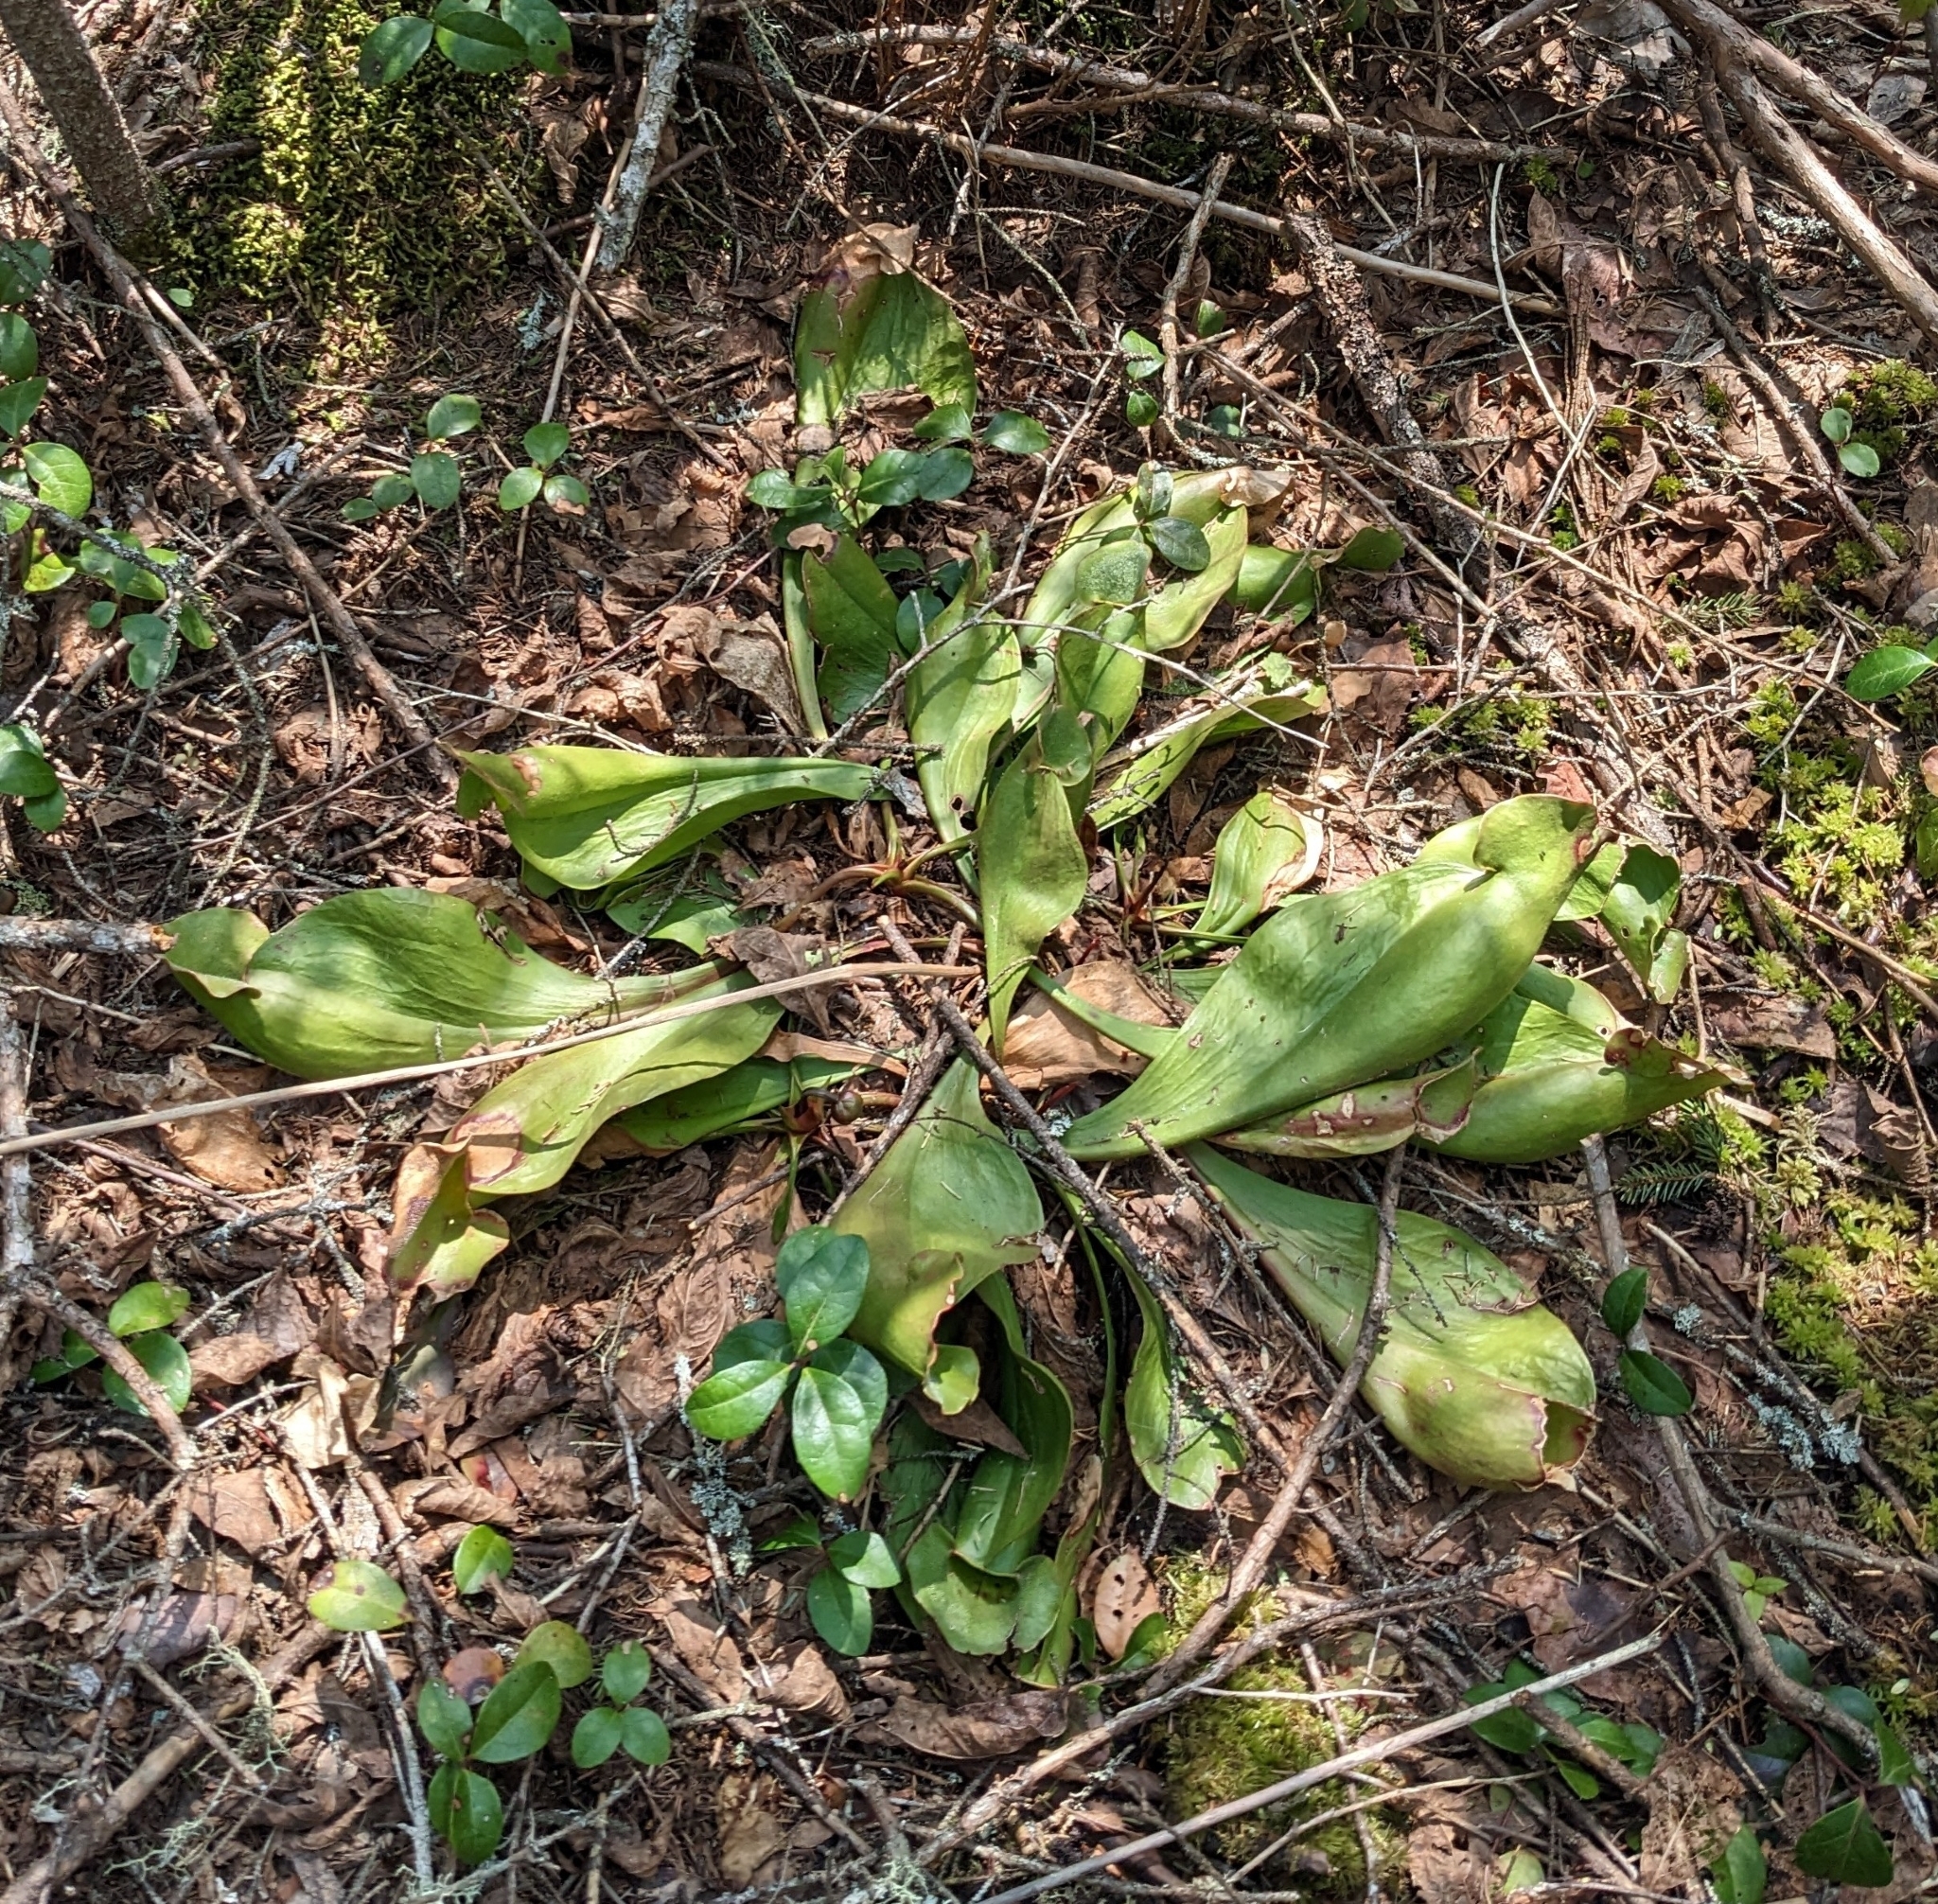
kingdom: Plantae
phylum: Tracheophyta
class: Magnoliopsida
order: Ericales
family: Sarraceniaceae
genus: Sarracenia
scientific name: Sarracenia purpurea
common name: Pitcherplant
